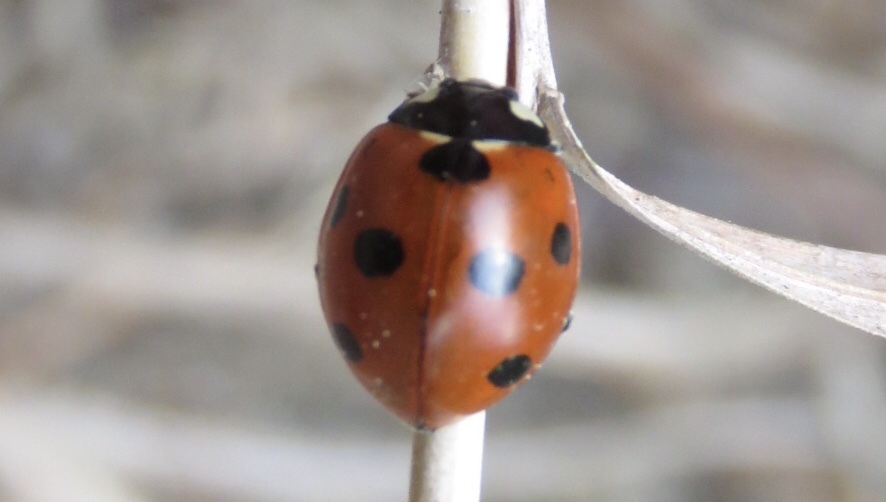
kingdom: Animalia
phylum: Arthropoda
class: Insecta
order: Coleoptera
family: Coccinellidae
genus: Coccinella
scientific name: Coccinella septempunctata
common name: Sevenspotted lady beetle
